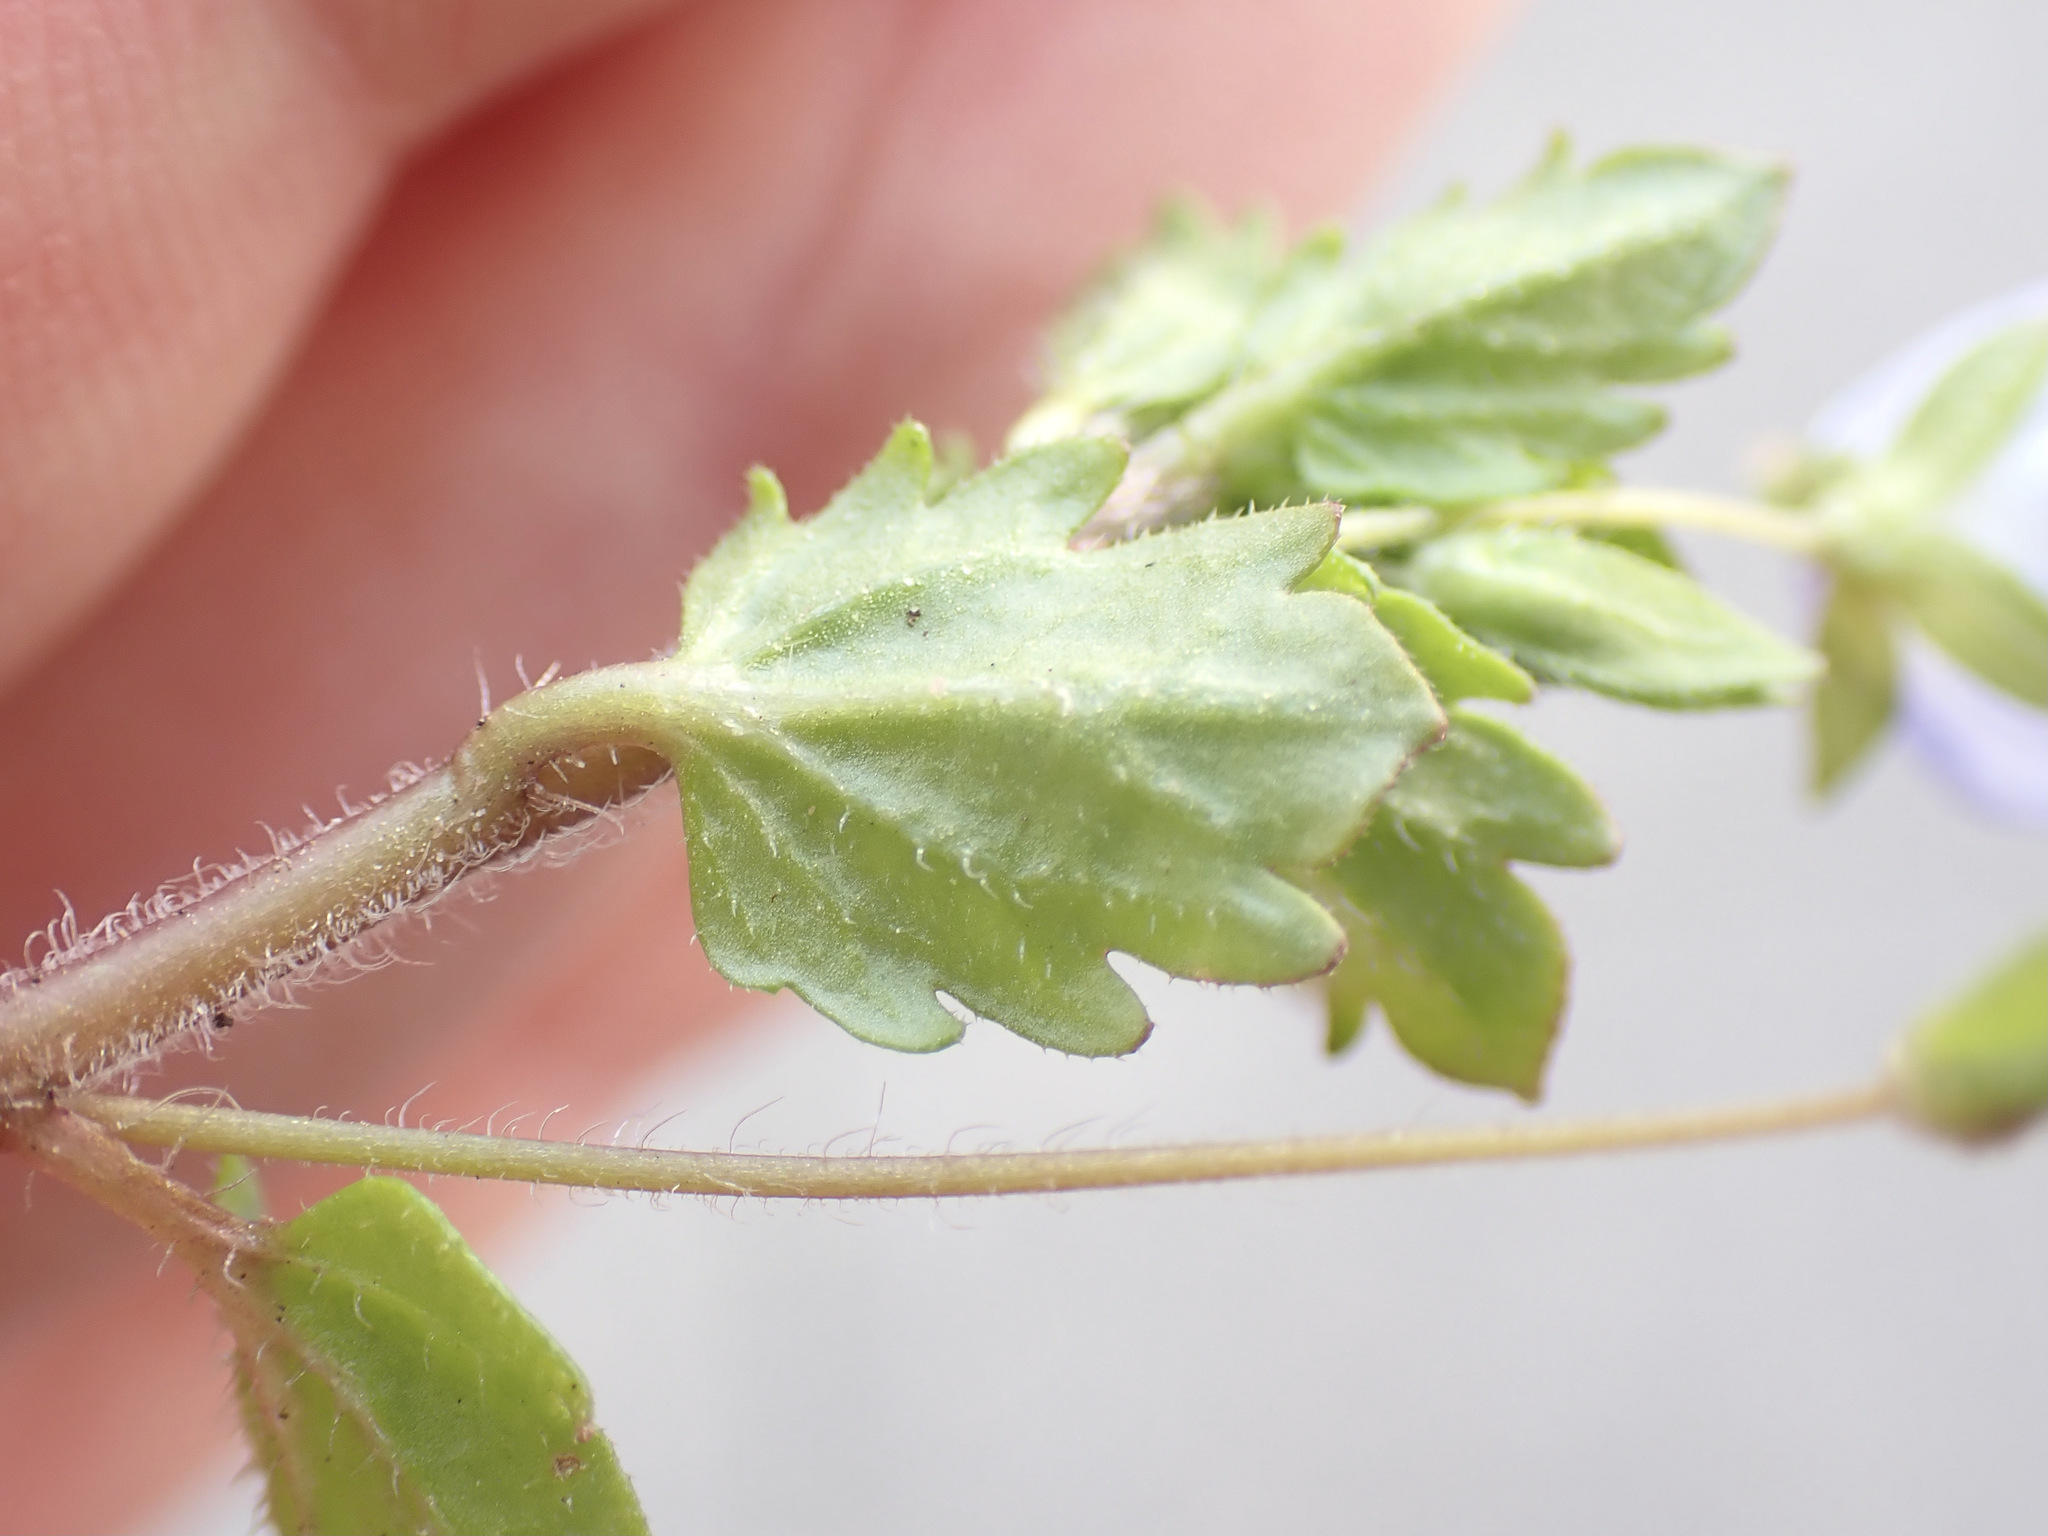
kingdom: Plantae
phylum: Tracheophyta
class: Magnoliopsida
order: Lamiales
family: Plantaginaceae
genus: Veronica
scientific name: Veronica persica
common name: Common field-speedwell
